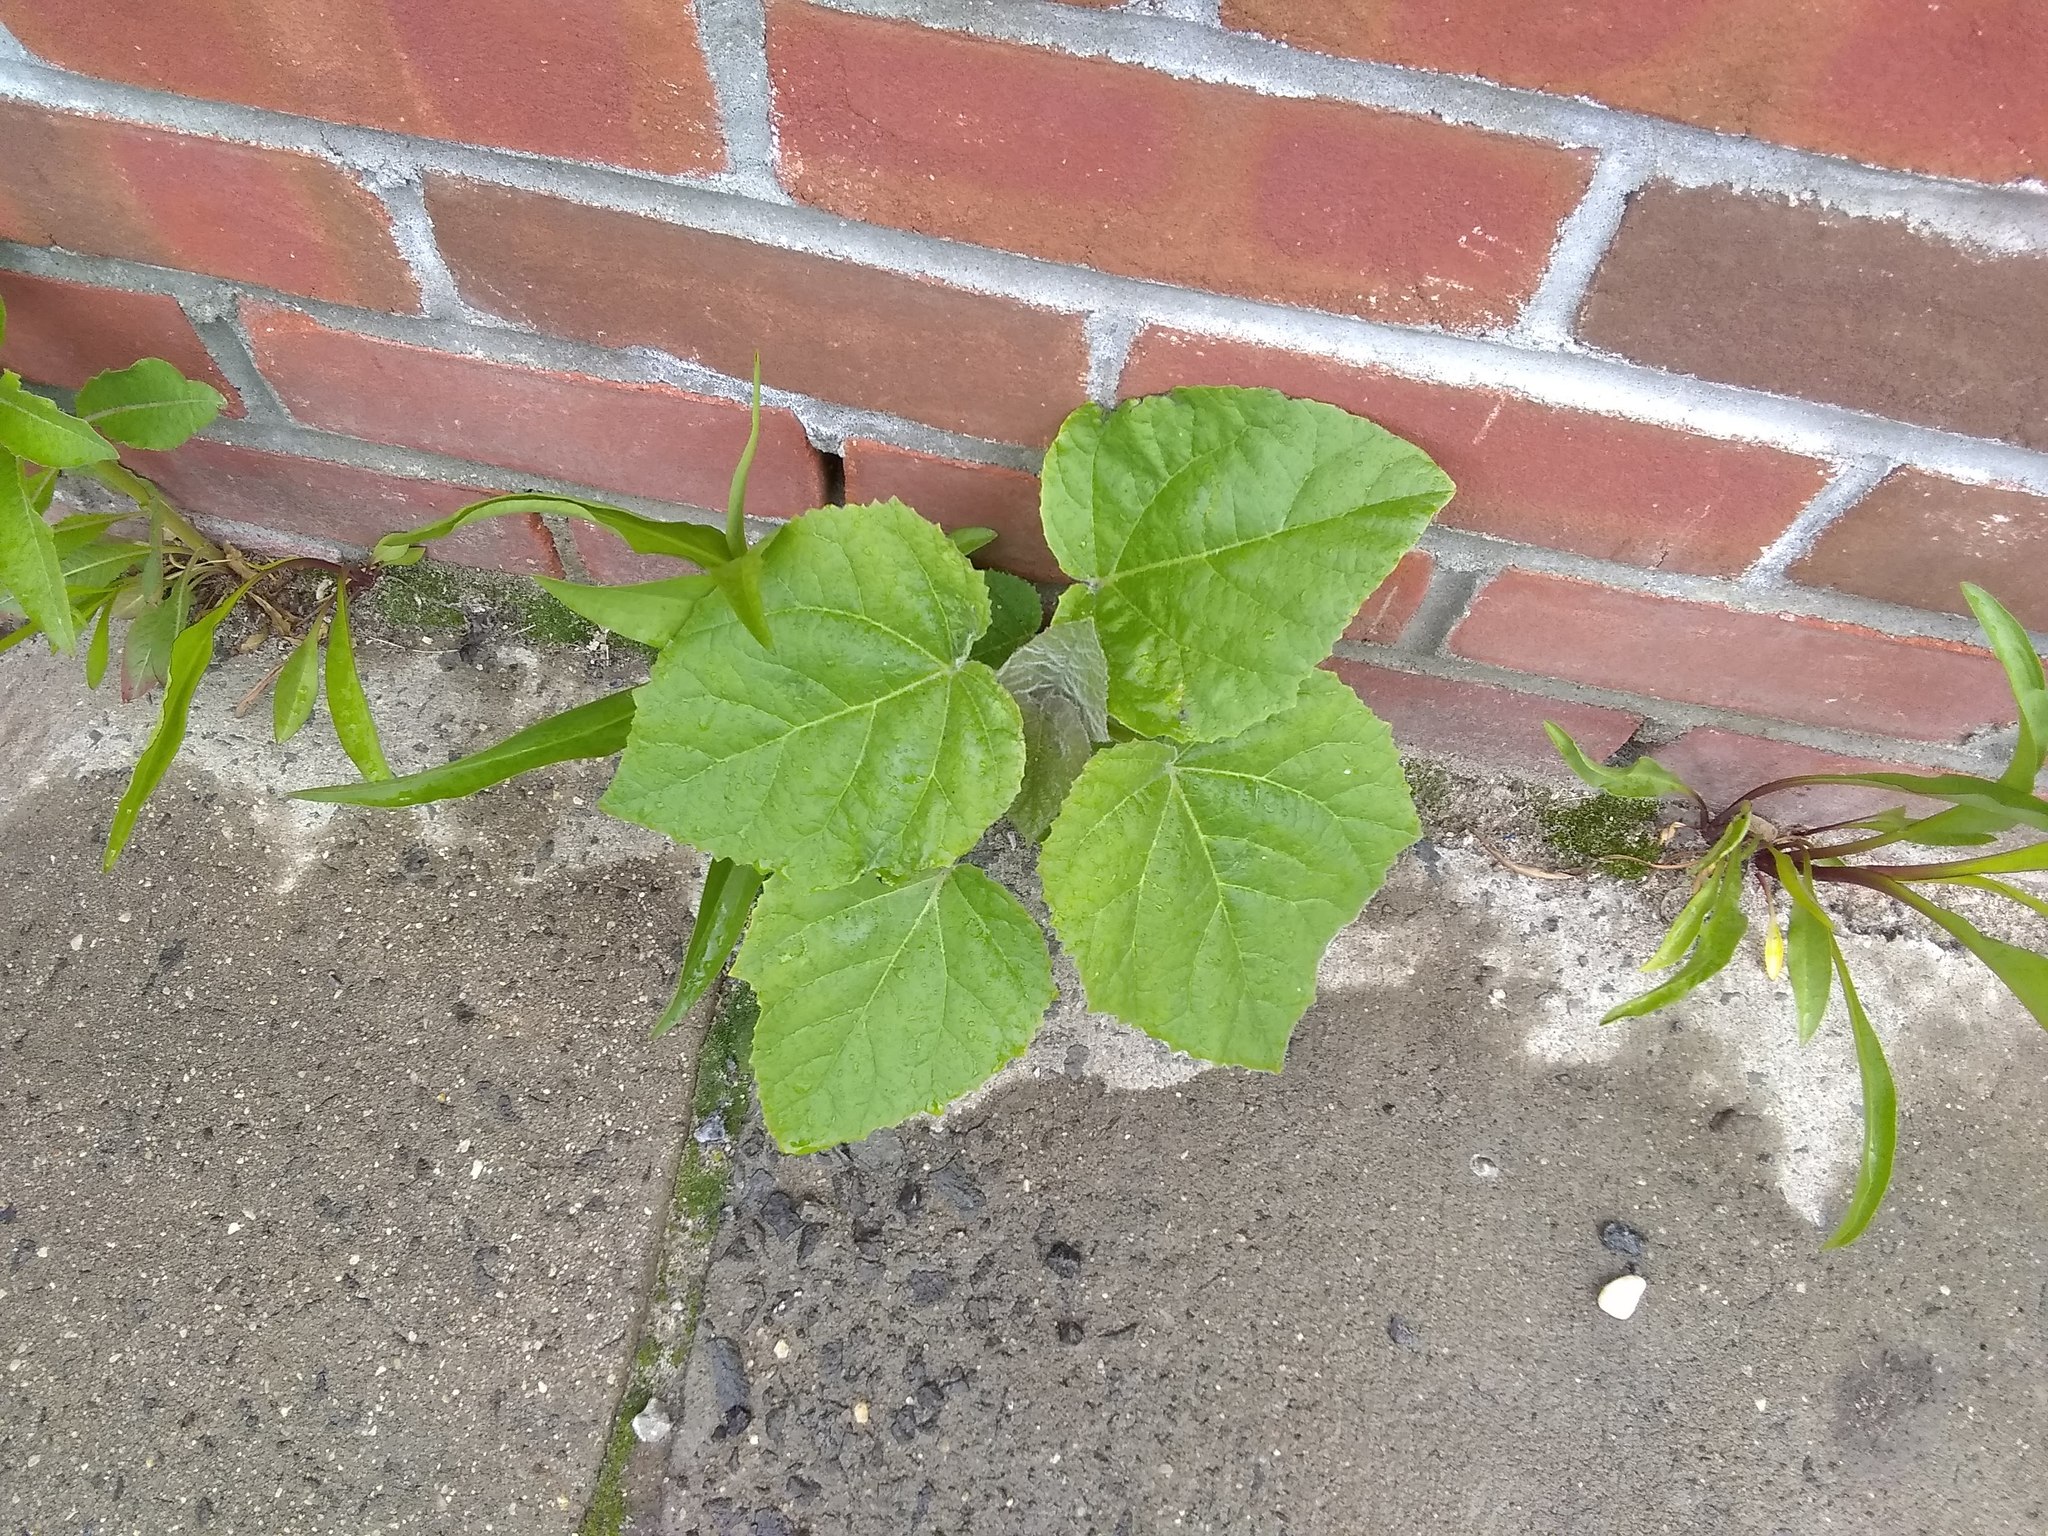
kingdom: Plantae
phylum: Tracheophyta
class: Magnoliopsida
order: Lamiales
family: Paulowniaceae
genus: Paulownia
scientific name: Paulownia tomentosa
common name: Foxglove-tree
